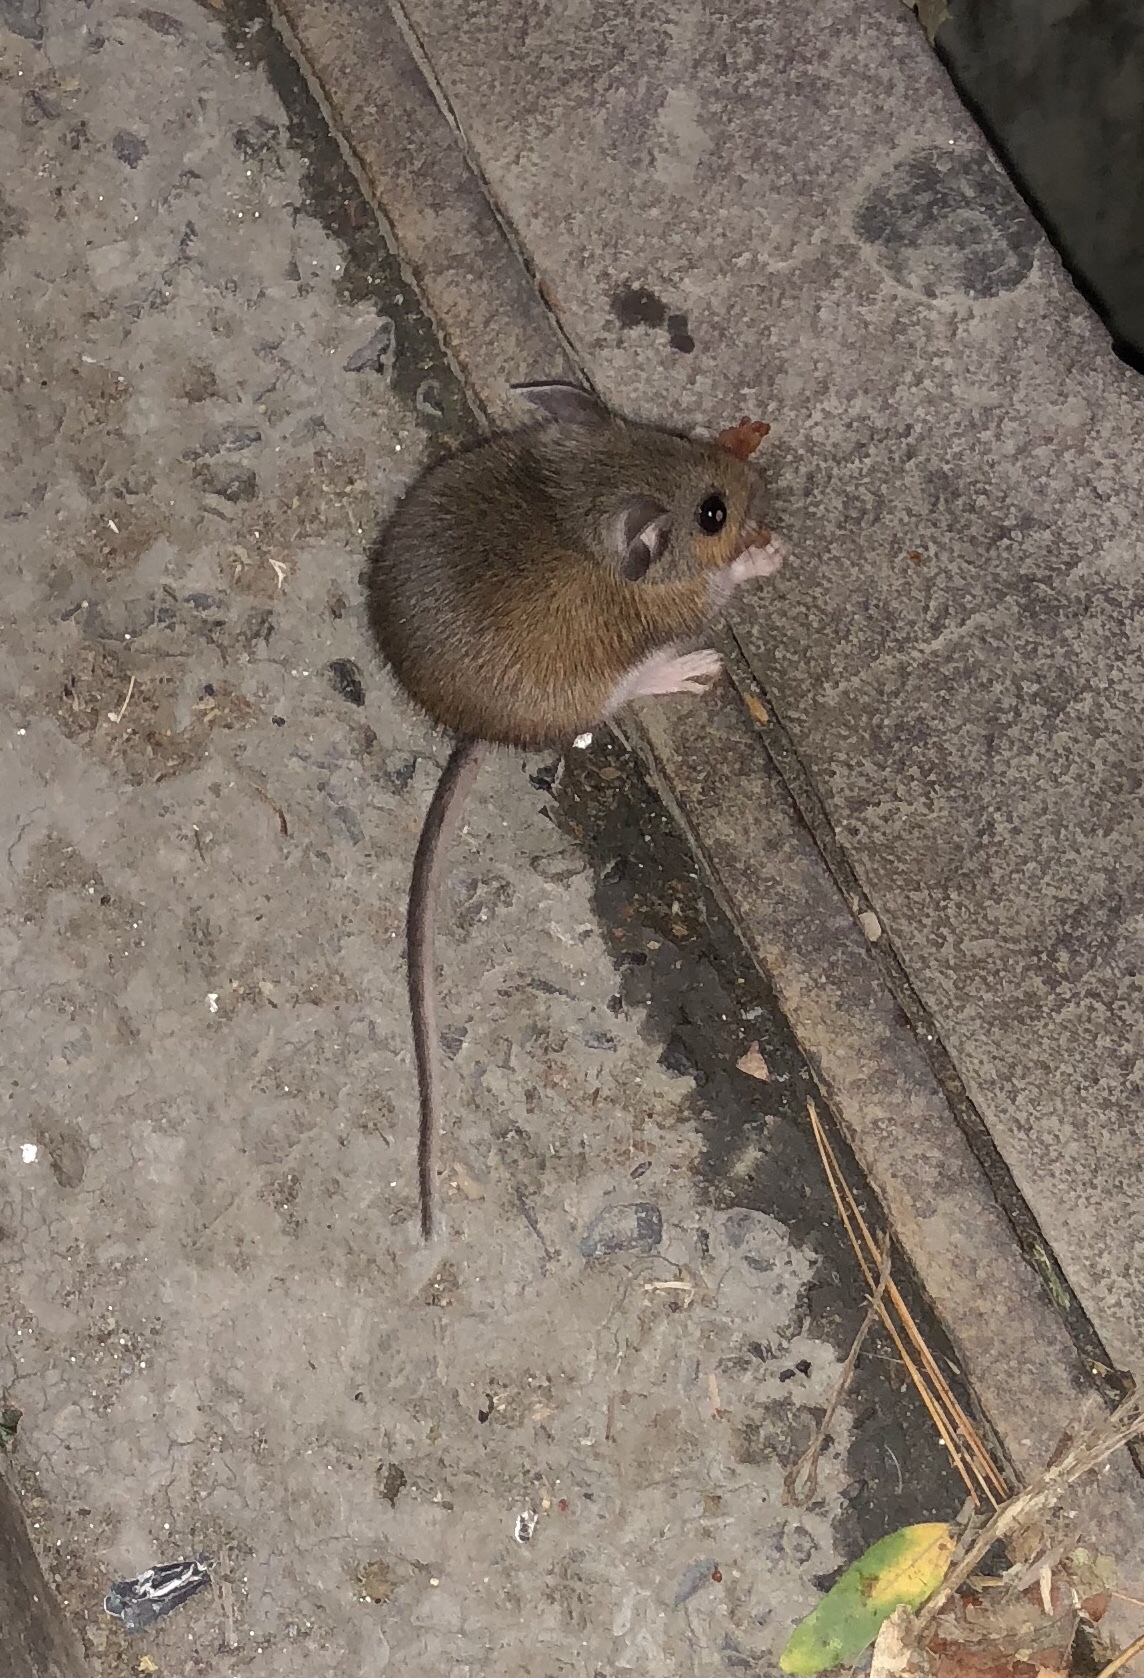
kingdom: Animalia
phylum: Chordata
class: Mammalia
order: Rodentia
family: Cricetidae
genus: Peromyscus
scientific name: Peromyscus maniculatus
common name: Deer mouse
